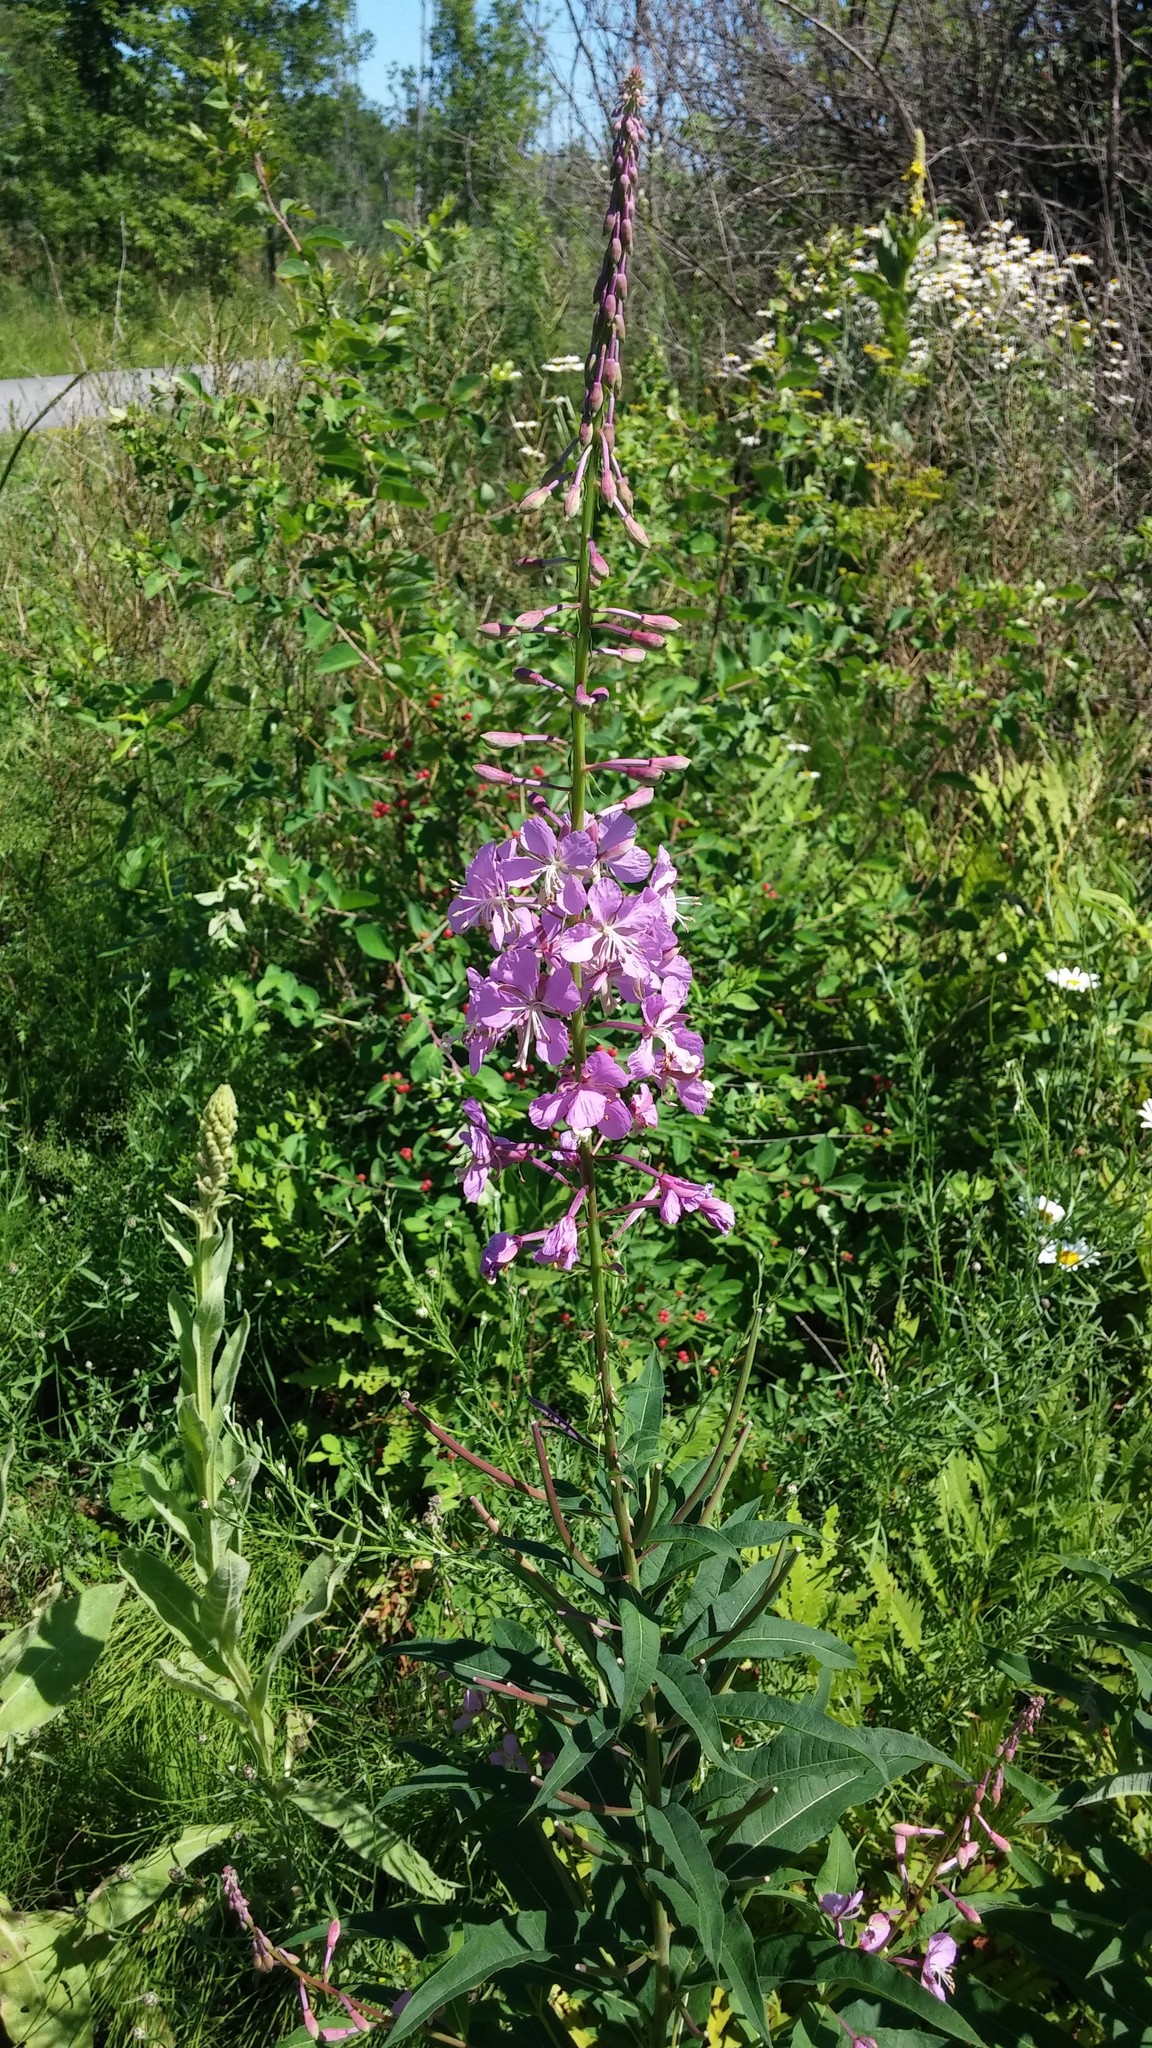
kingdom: Plantae
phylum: Tracheophyta
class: Magnoliopsida
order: Myrtales
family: Onagraceae
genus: Chamaenerion
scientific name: Chamaenerion angustifolium
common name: Fireweed
